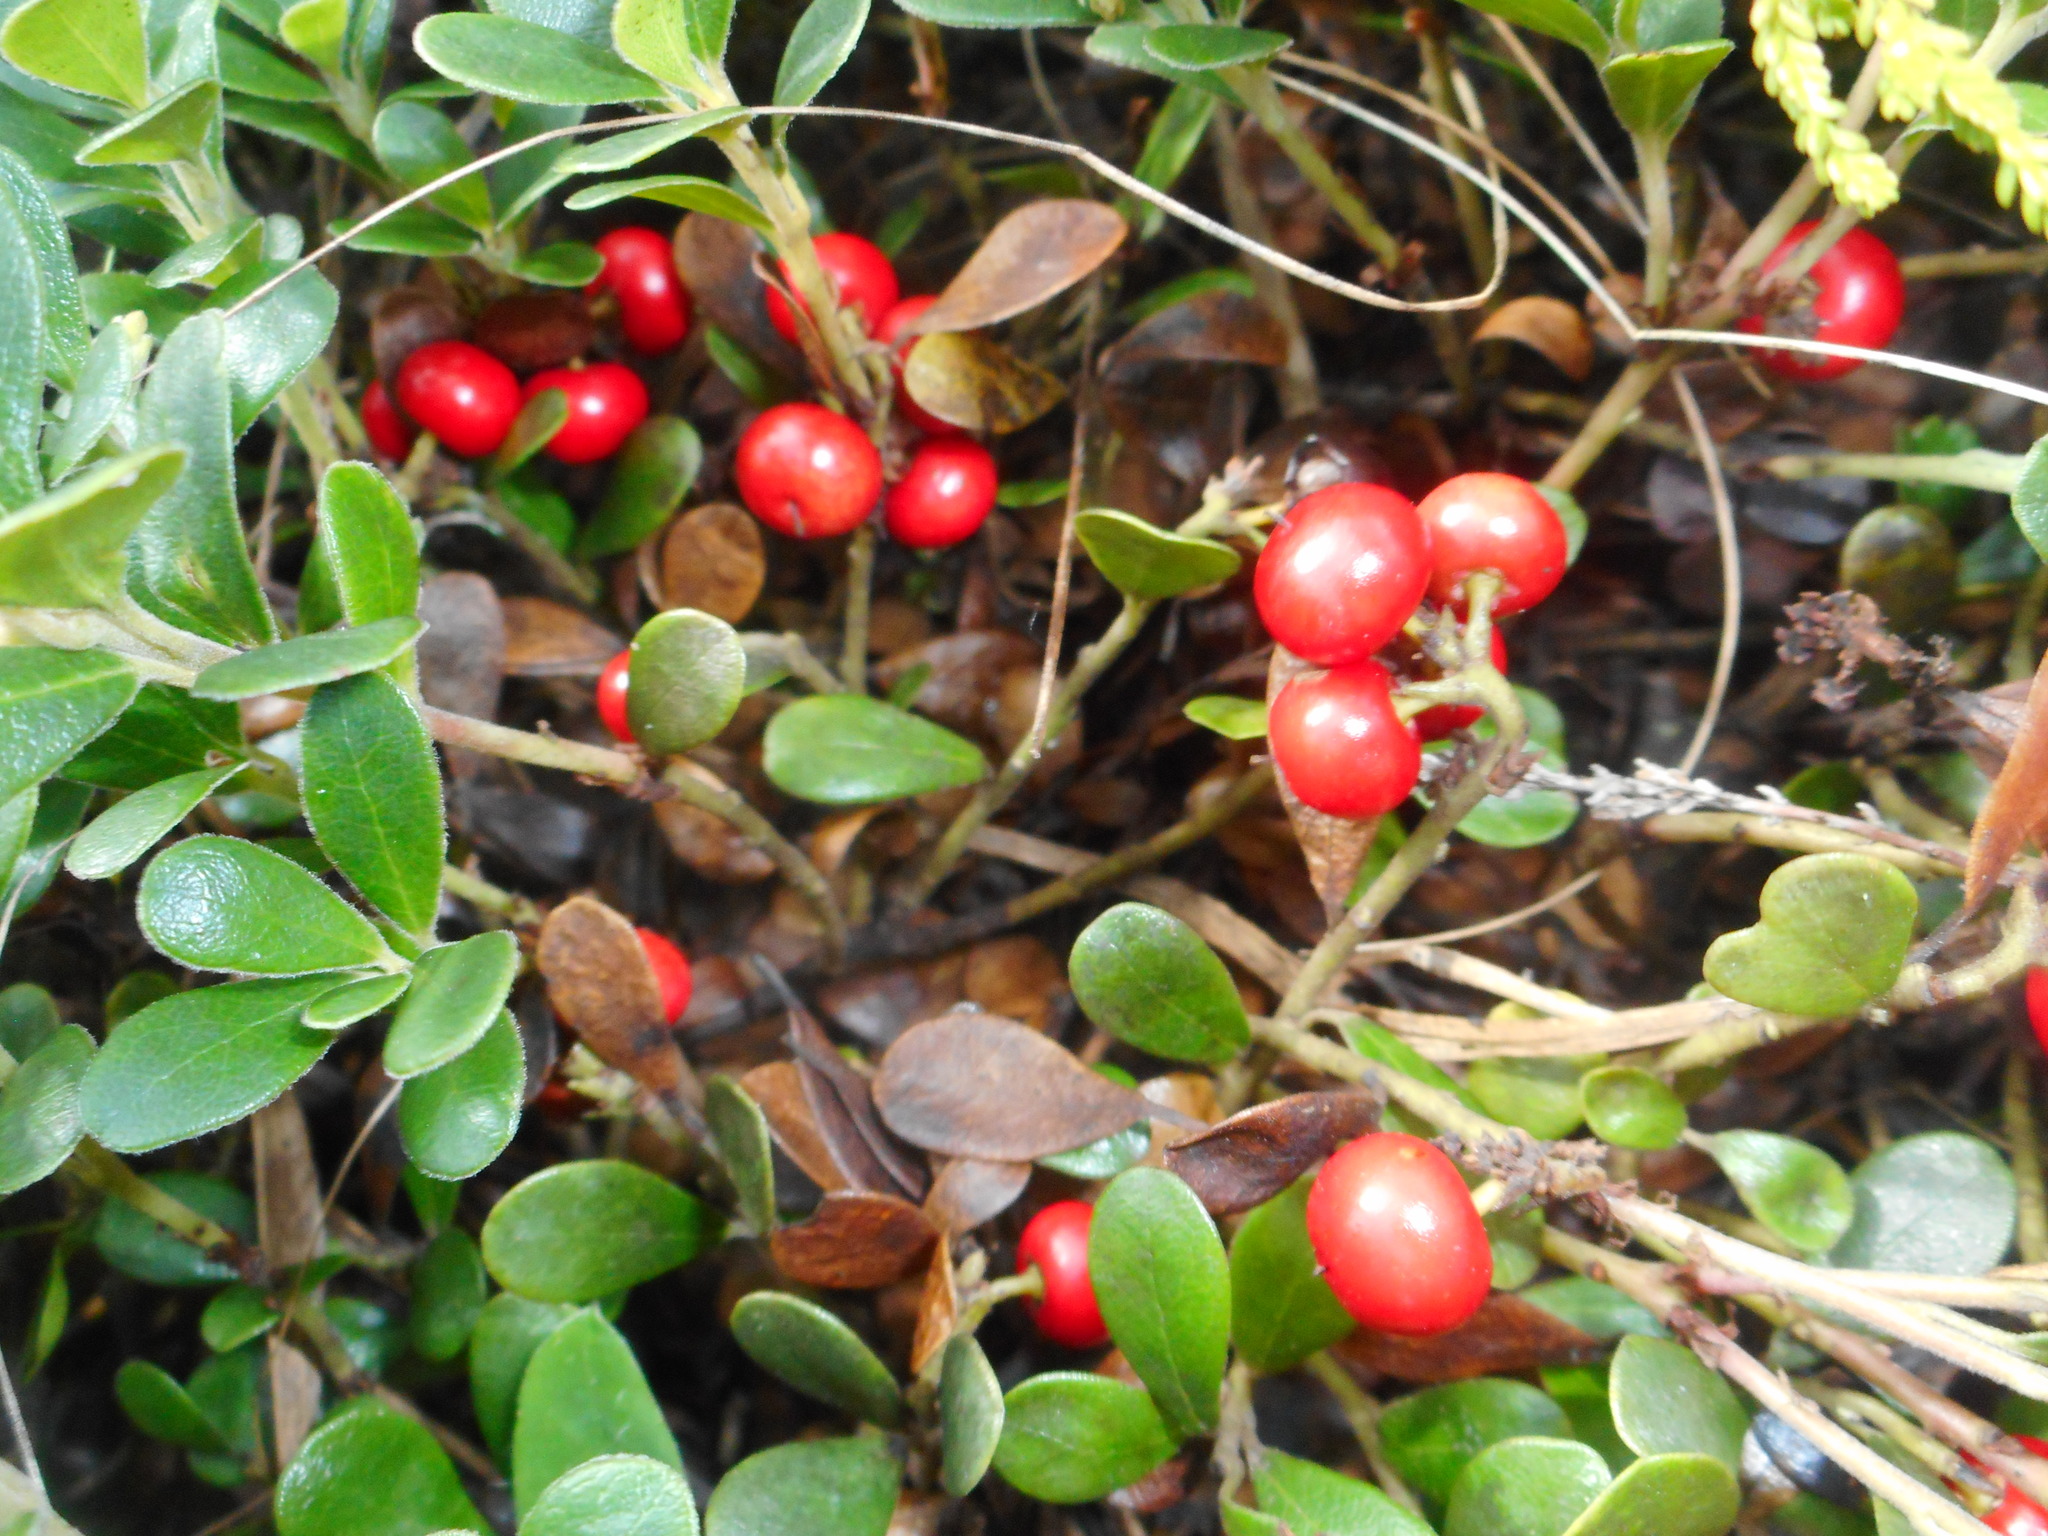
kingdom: Plantae
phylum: Tracheophyta
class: Magnoliopsida
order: Ericales
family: Ericaceae
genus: Arctostaphylos
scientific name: Arctostaphylos uva-ursi
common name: Bearberry
